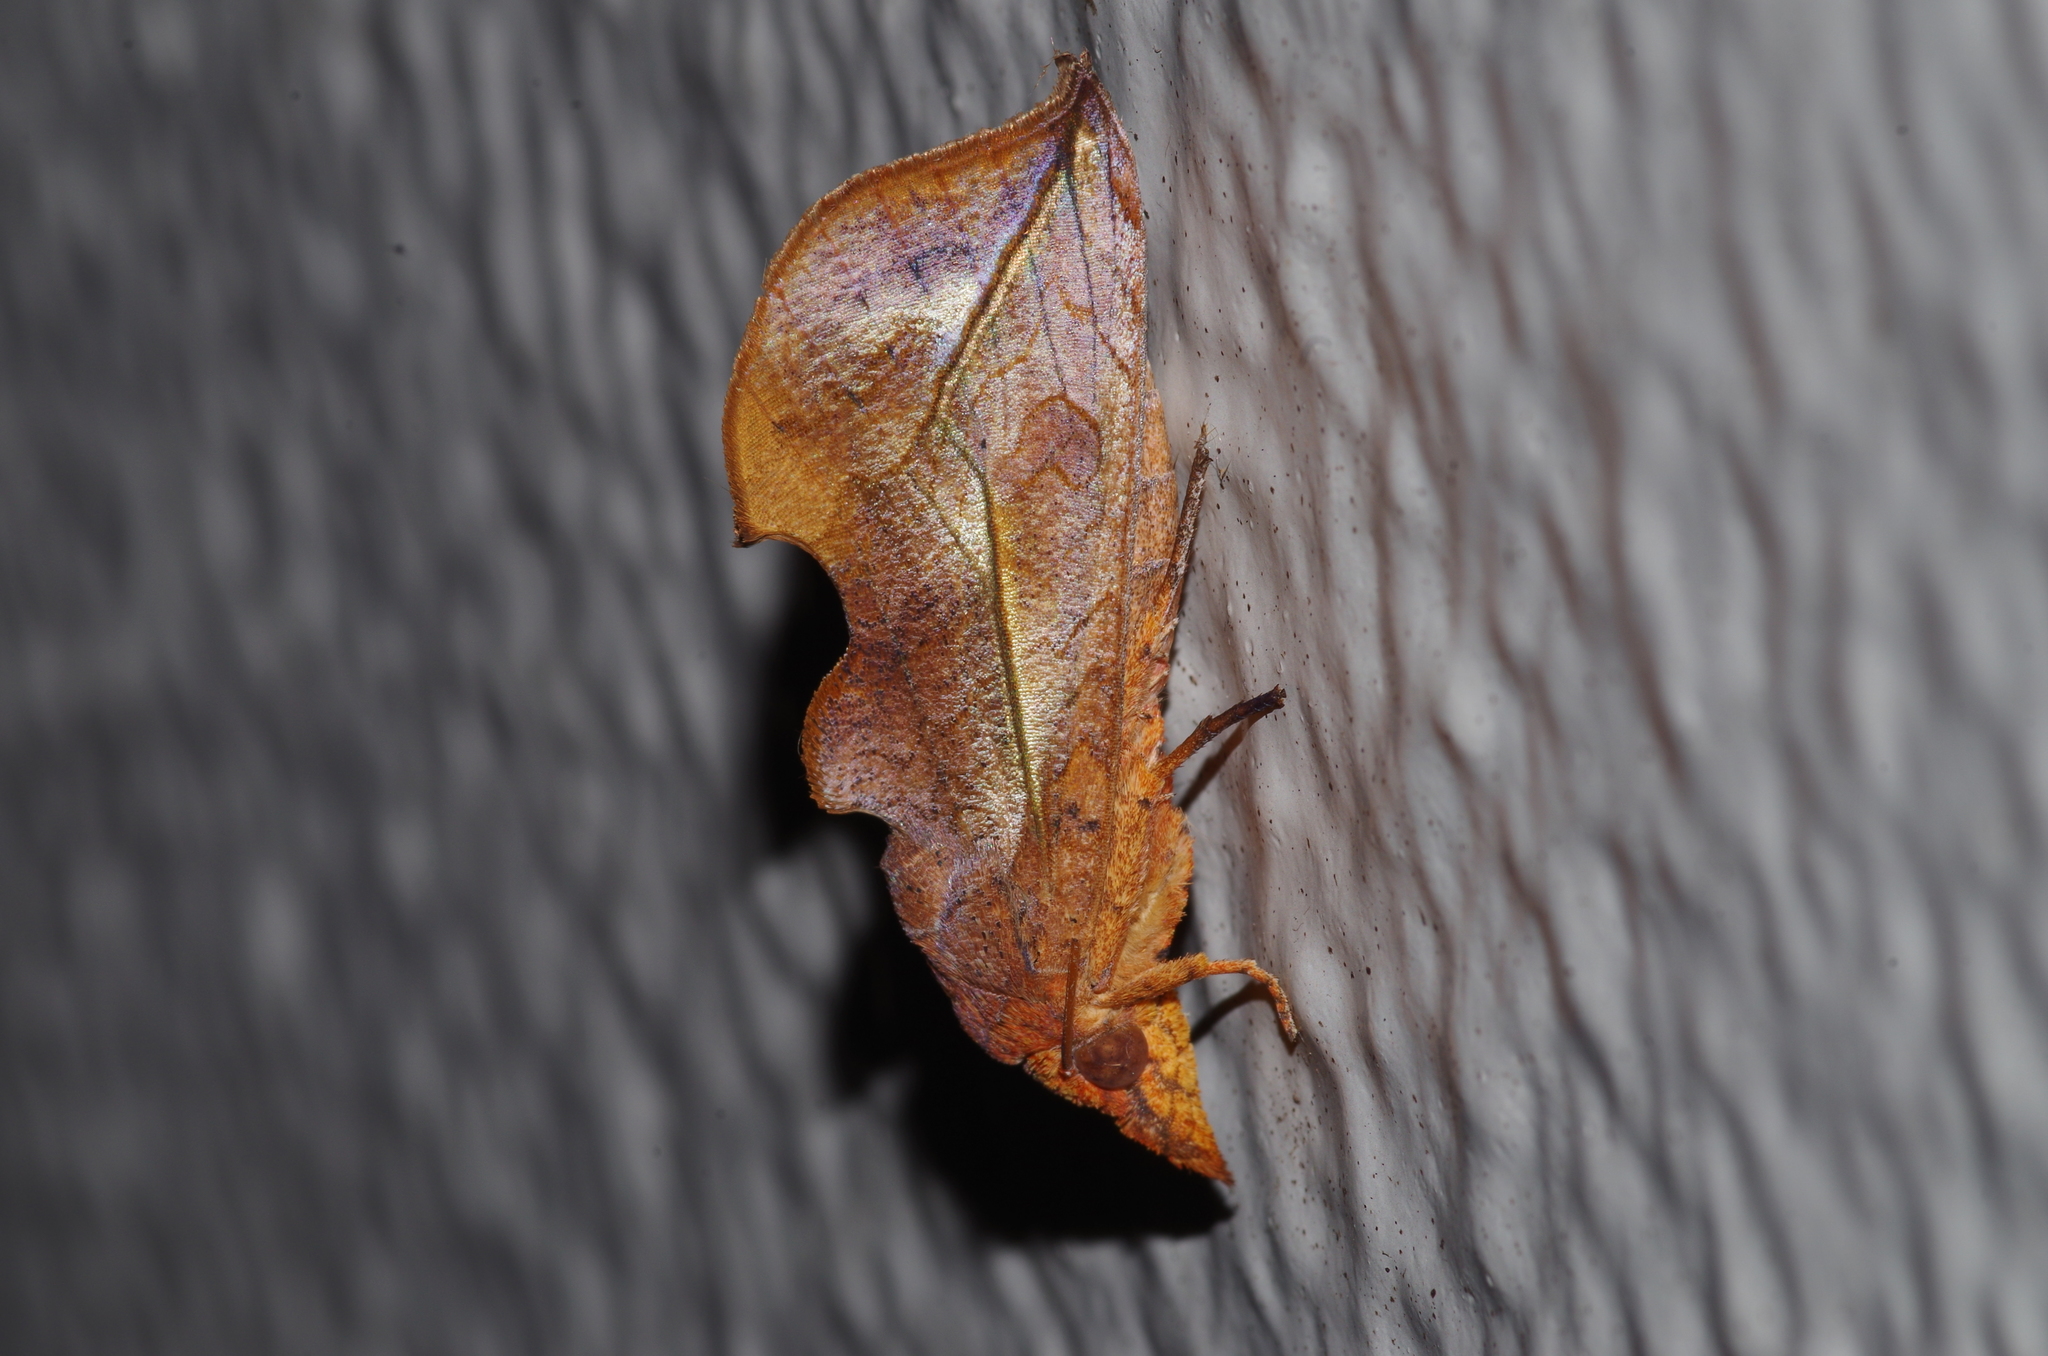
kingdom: Animalia
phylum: Arthropoda
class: Insecta
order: Lepidoptera
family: Erebidae
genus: Oraesia
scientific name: Oraesia excavata
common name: Moth
